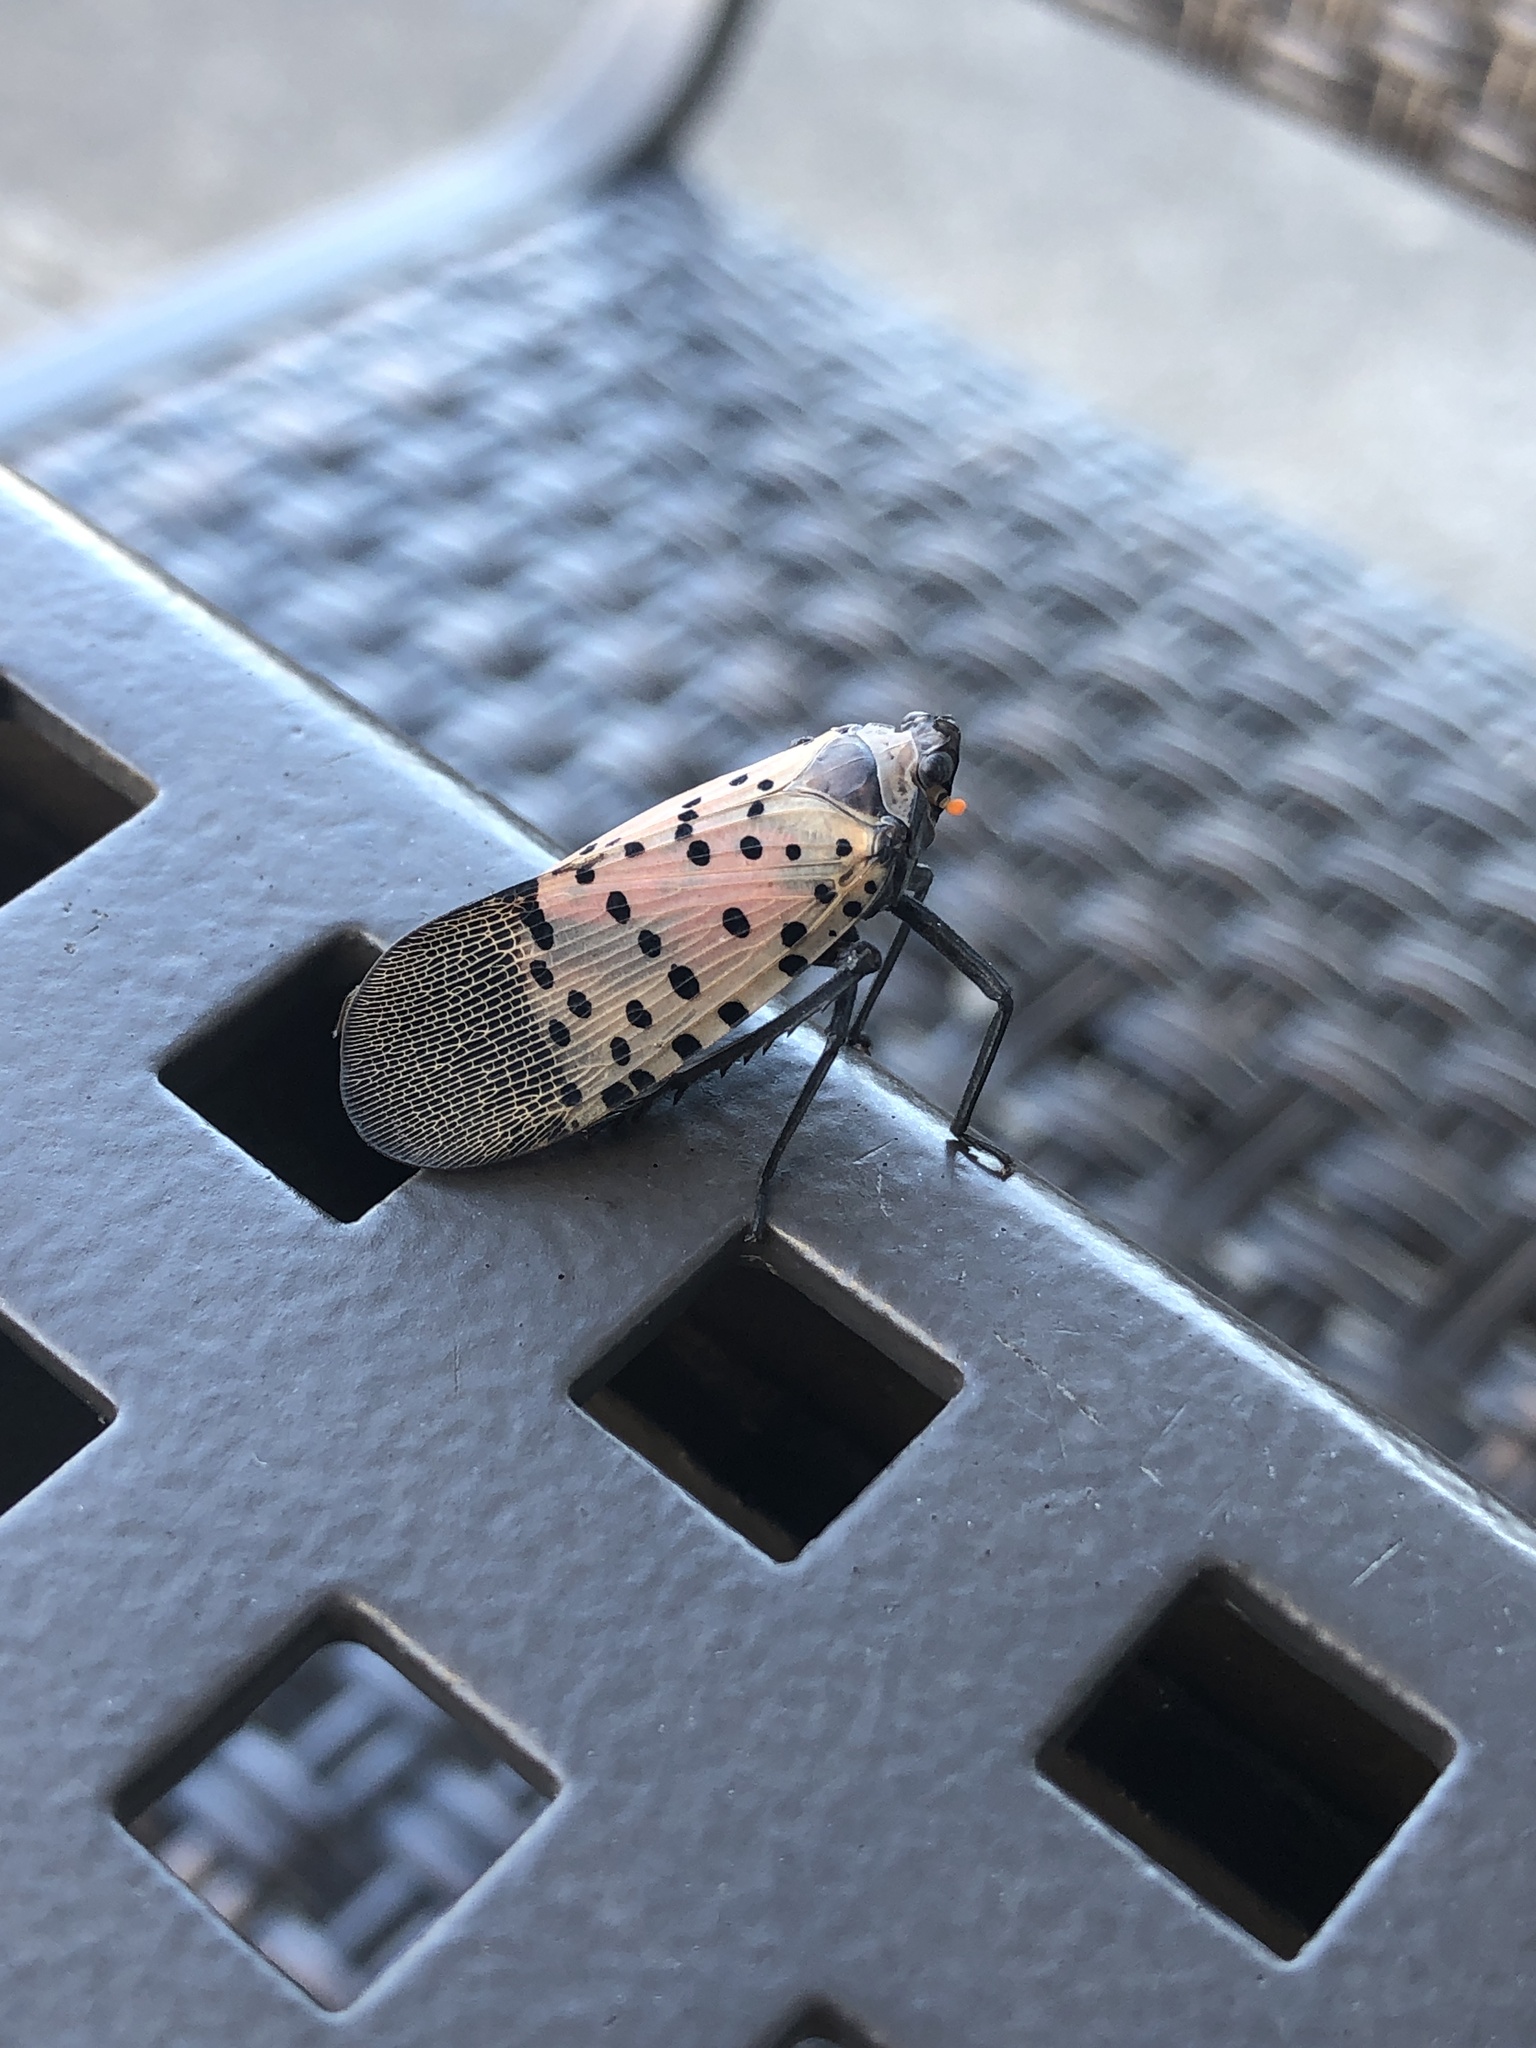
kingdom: Animalia
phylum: Arthropoda
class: Insecta
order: Hemiptera
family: Fulgoridae
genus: Lycorma
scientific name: Lycorma delicatula
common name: Spotted lanternfly
